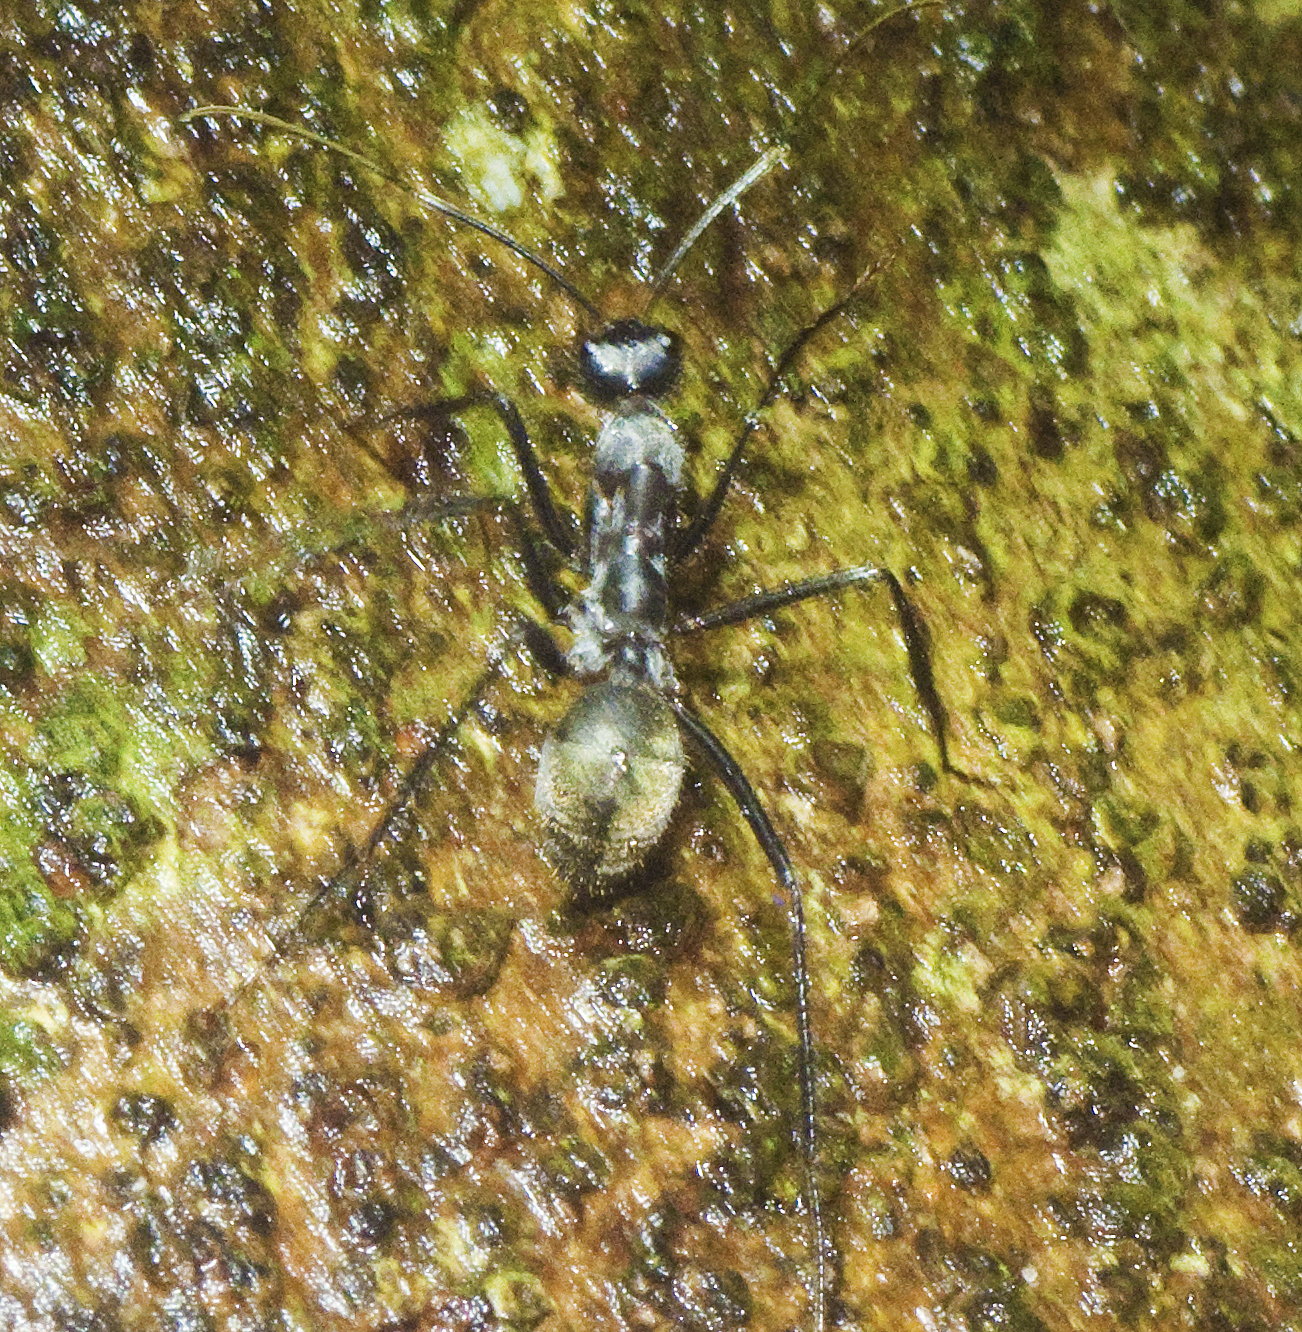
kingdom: Animalia
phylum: Arthropoda
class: Insecta
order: Hymenoptera
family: Formicidae
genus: Notostigma
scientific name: Notostigma carazzii
